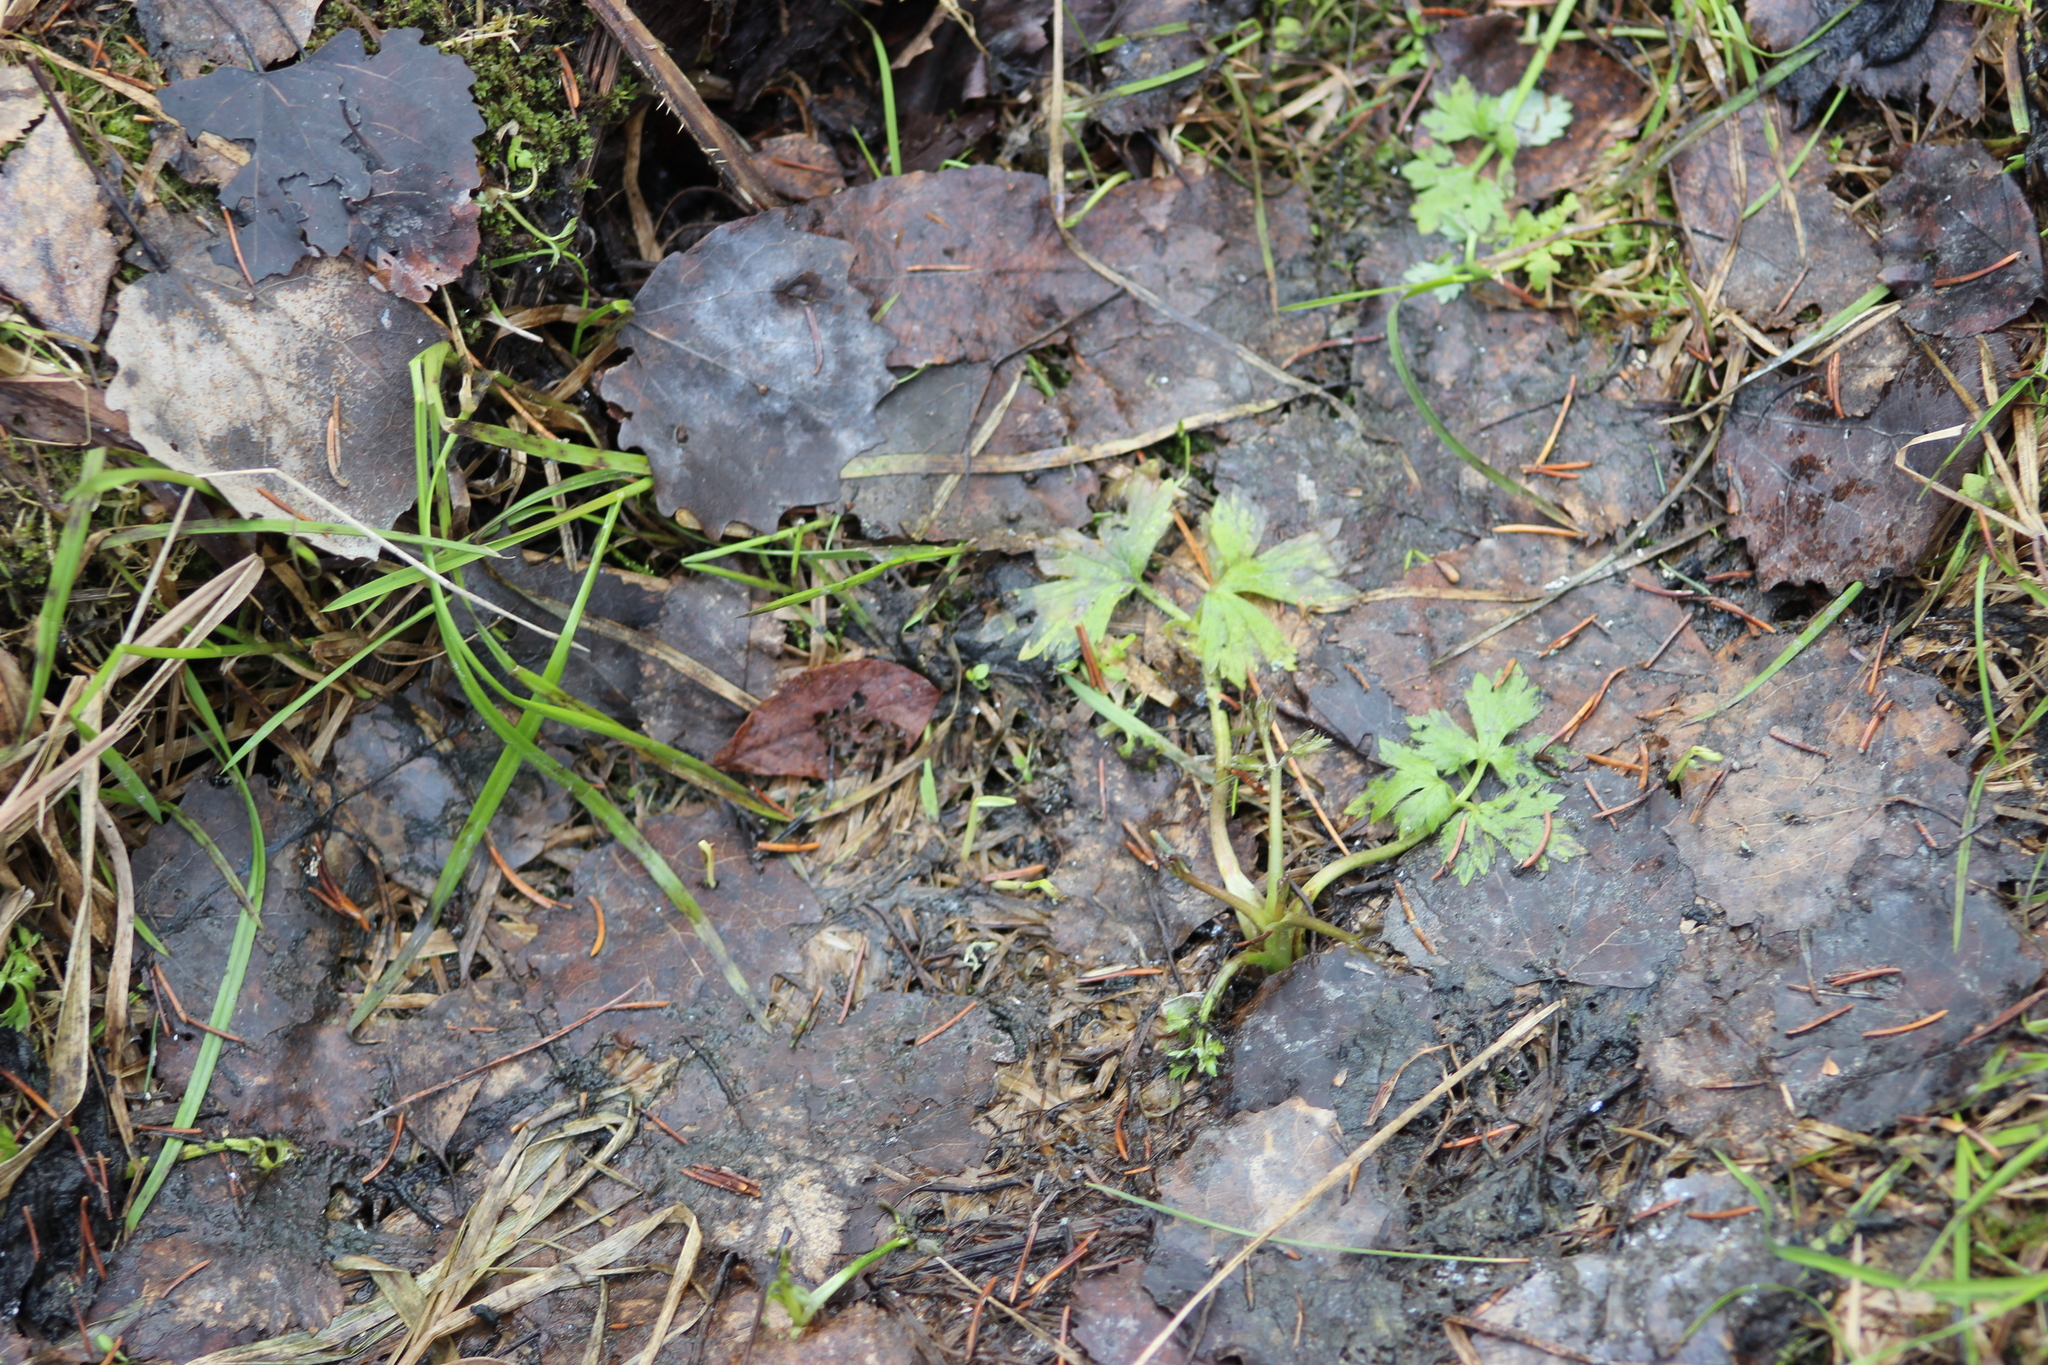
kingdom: Plantae
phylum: Tracheophyta
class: Magnoliopsida
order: Ranunculales
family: Ranunculaceae
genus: Ranunculus
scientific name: Ranunculus repens
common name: Creeping buttercup
